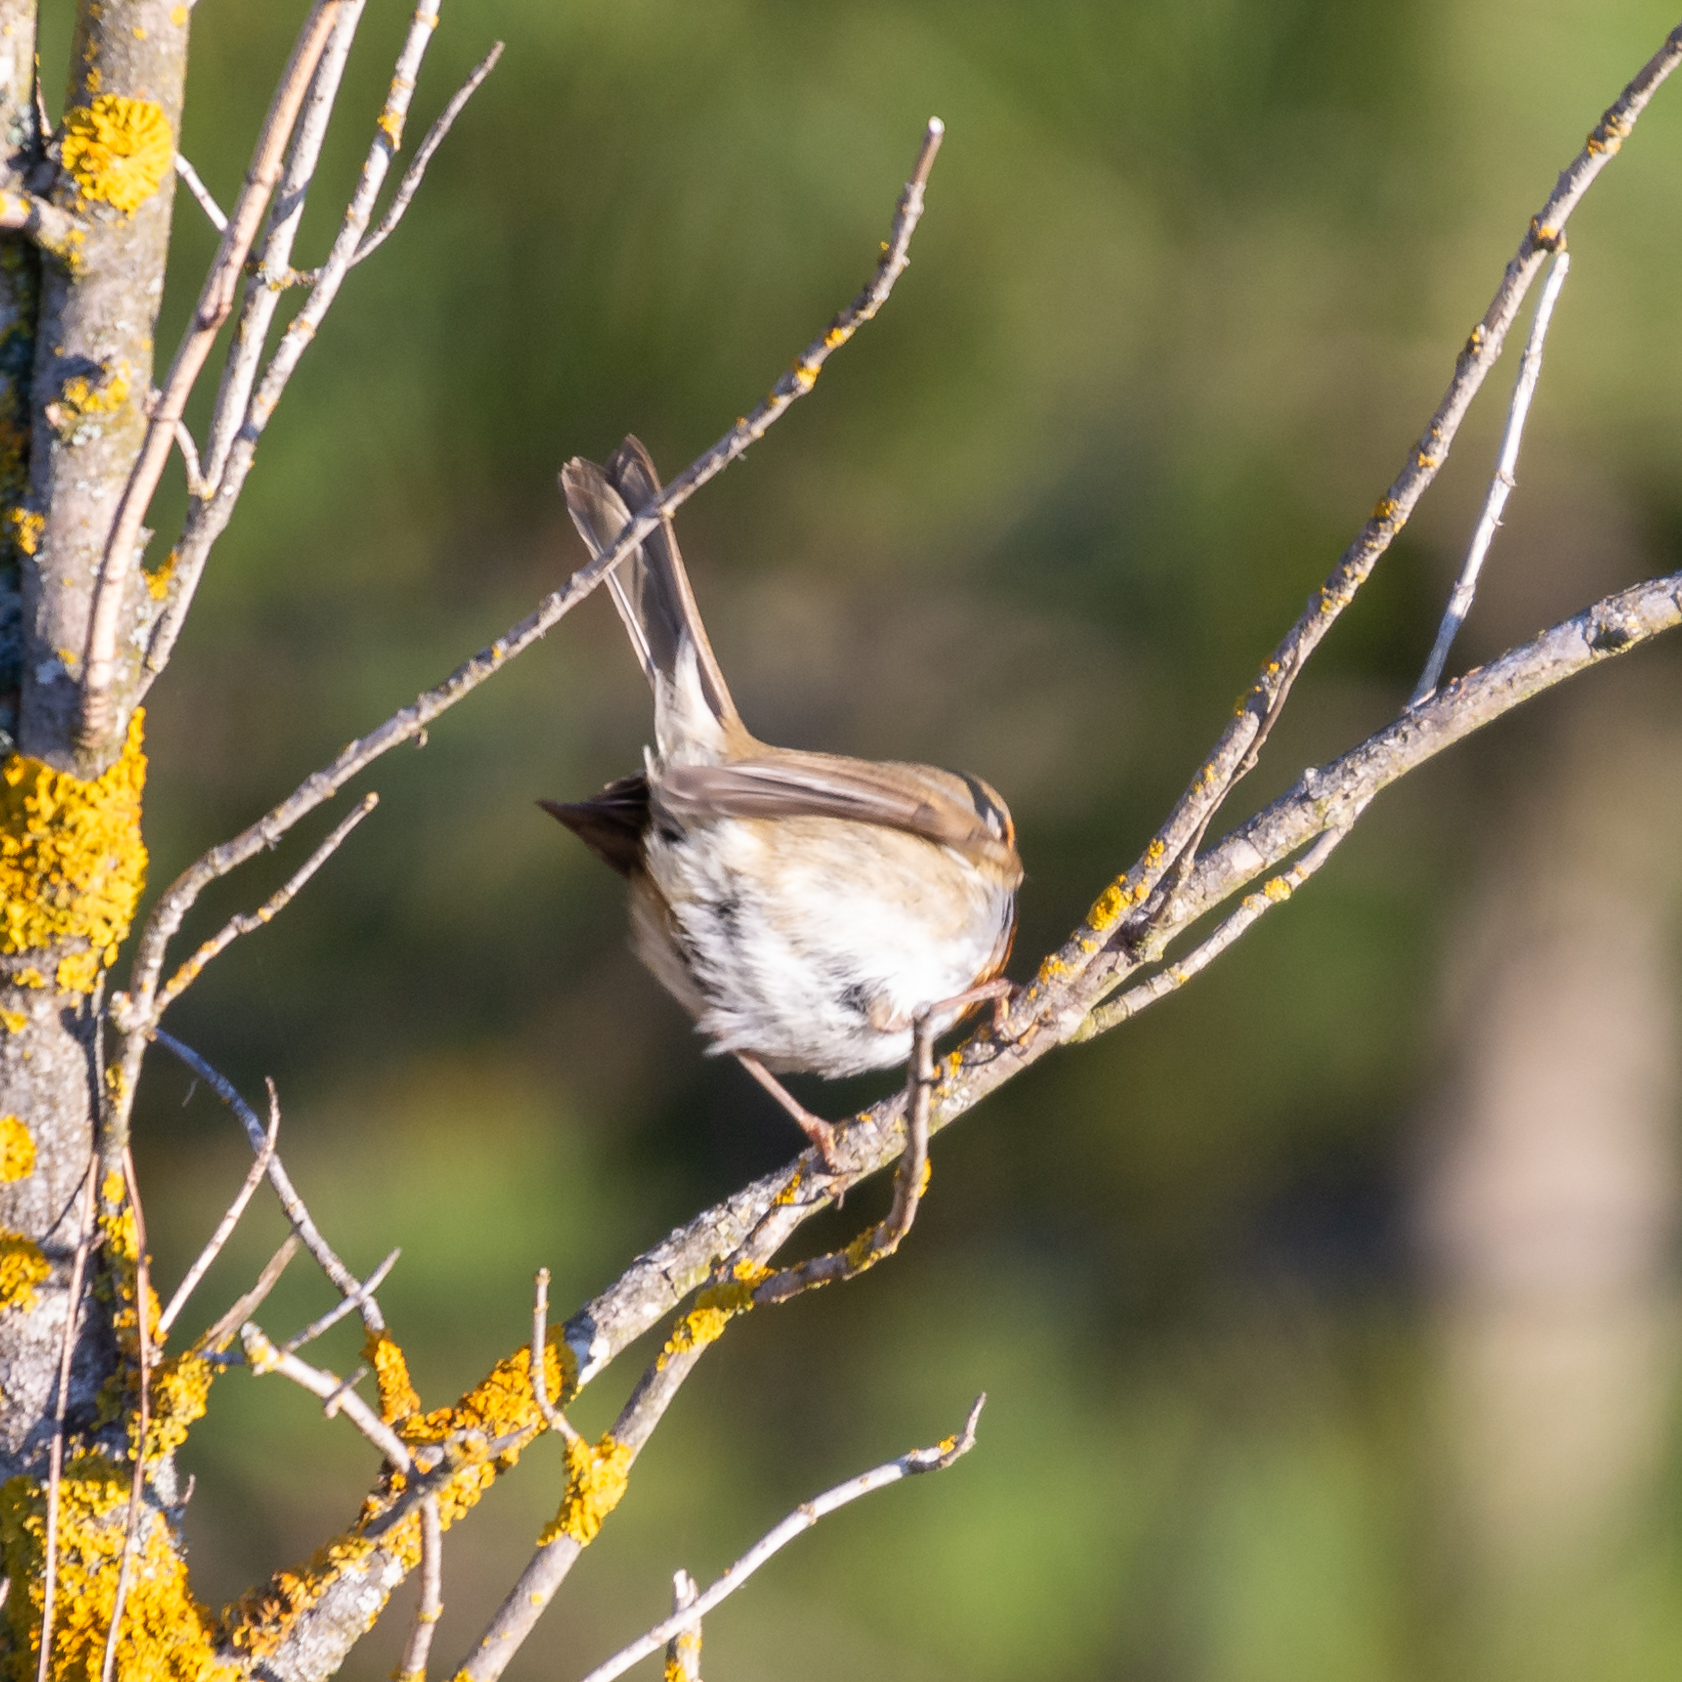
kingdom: Animalia
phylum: Chordata
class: Aves
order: Passeriformes
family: Muscicapidae
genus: Erithacus
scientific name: Erithacus rubecula
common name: European robin
